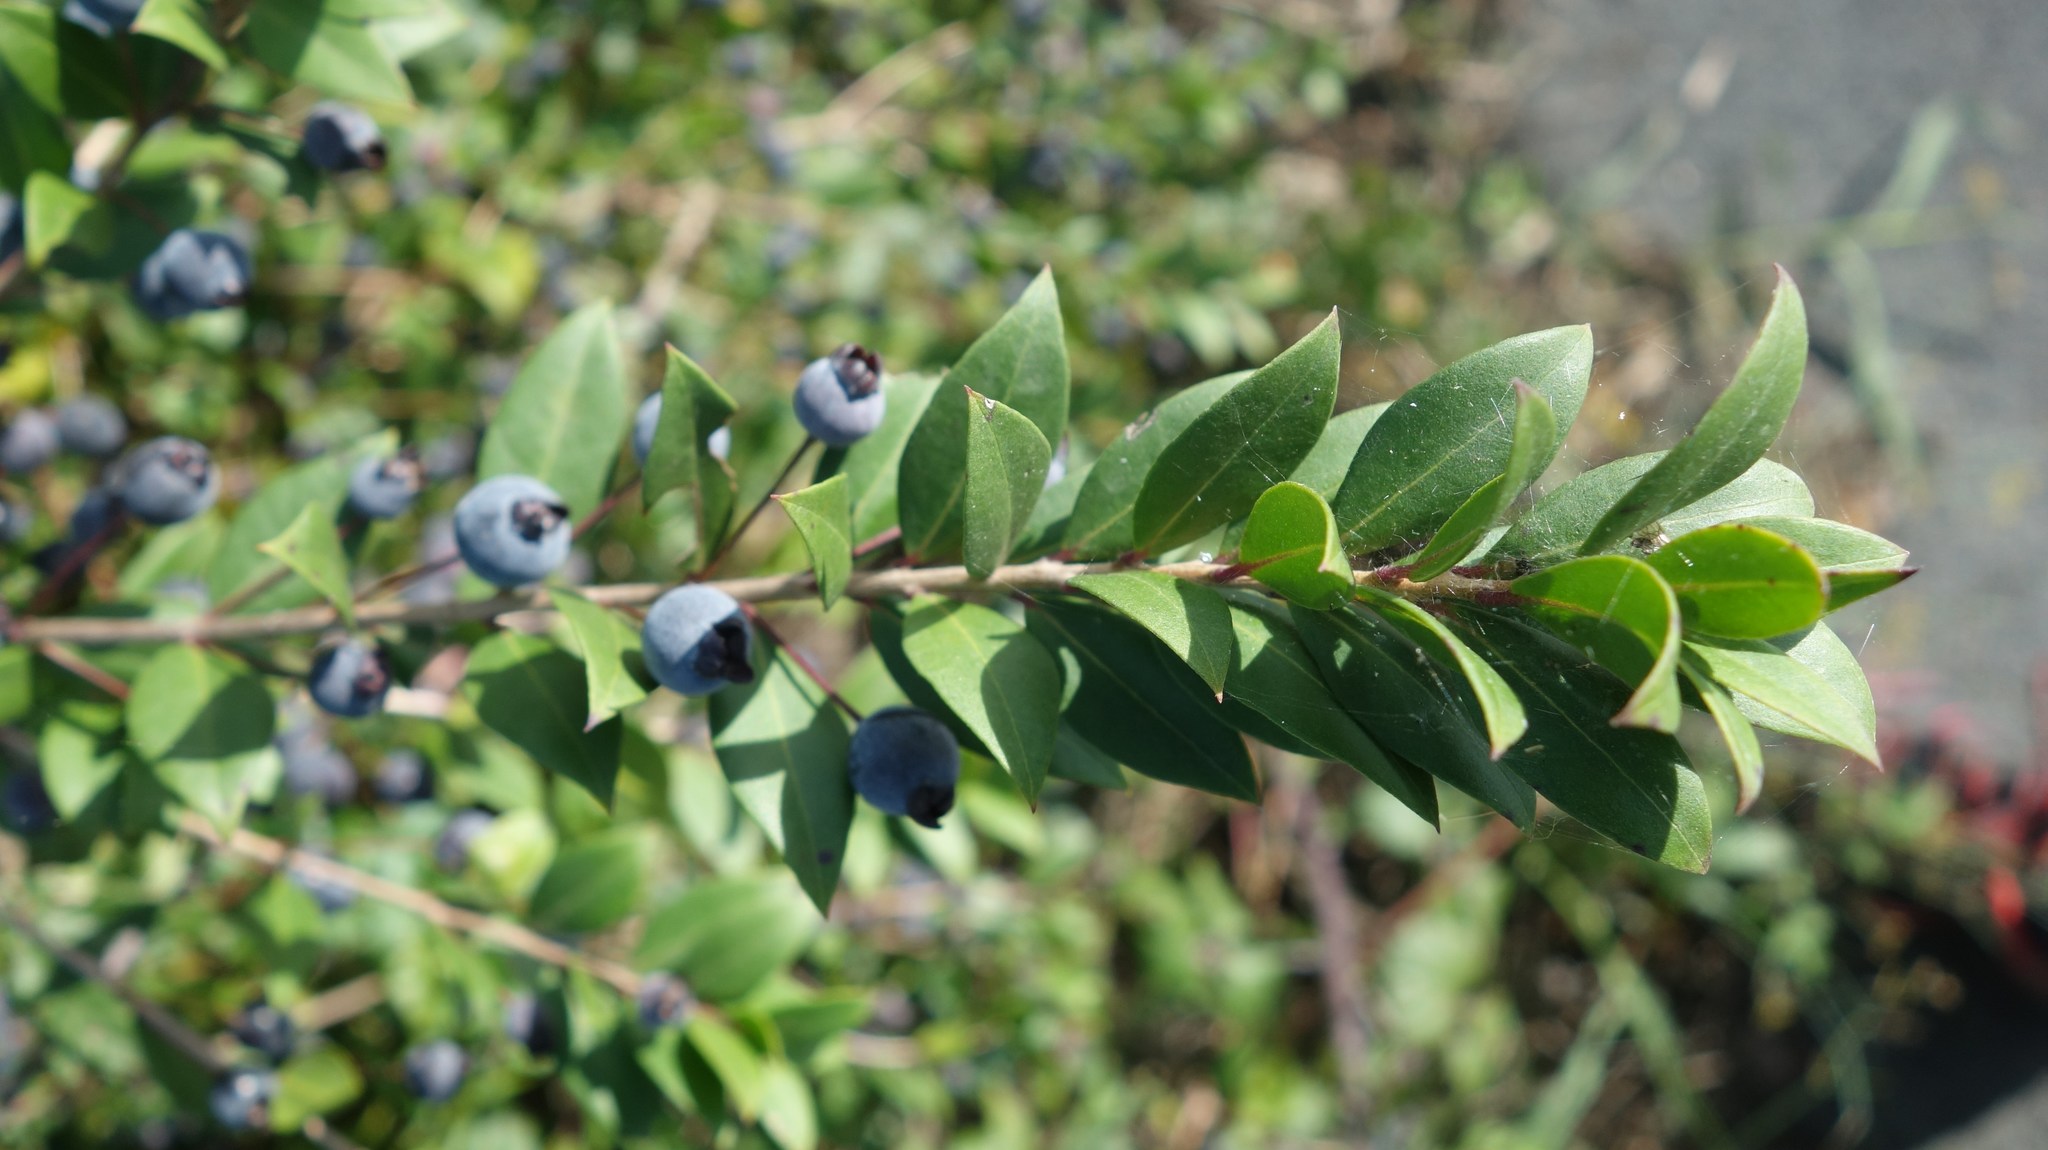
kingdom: Plantae
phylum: Tracheophyta
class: Magnoliopsida
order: Myrtales
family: Myrtaceae
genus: Myrtus
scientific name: Myrtus communis
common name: Myrtle
